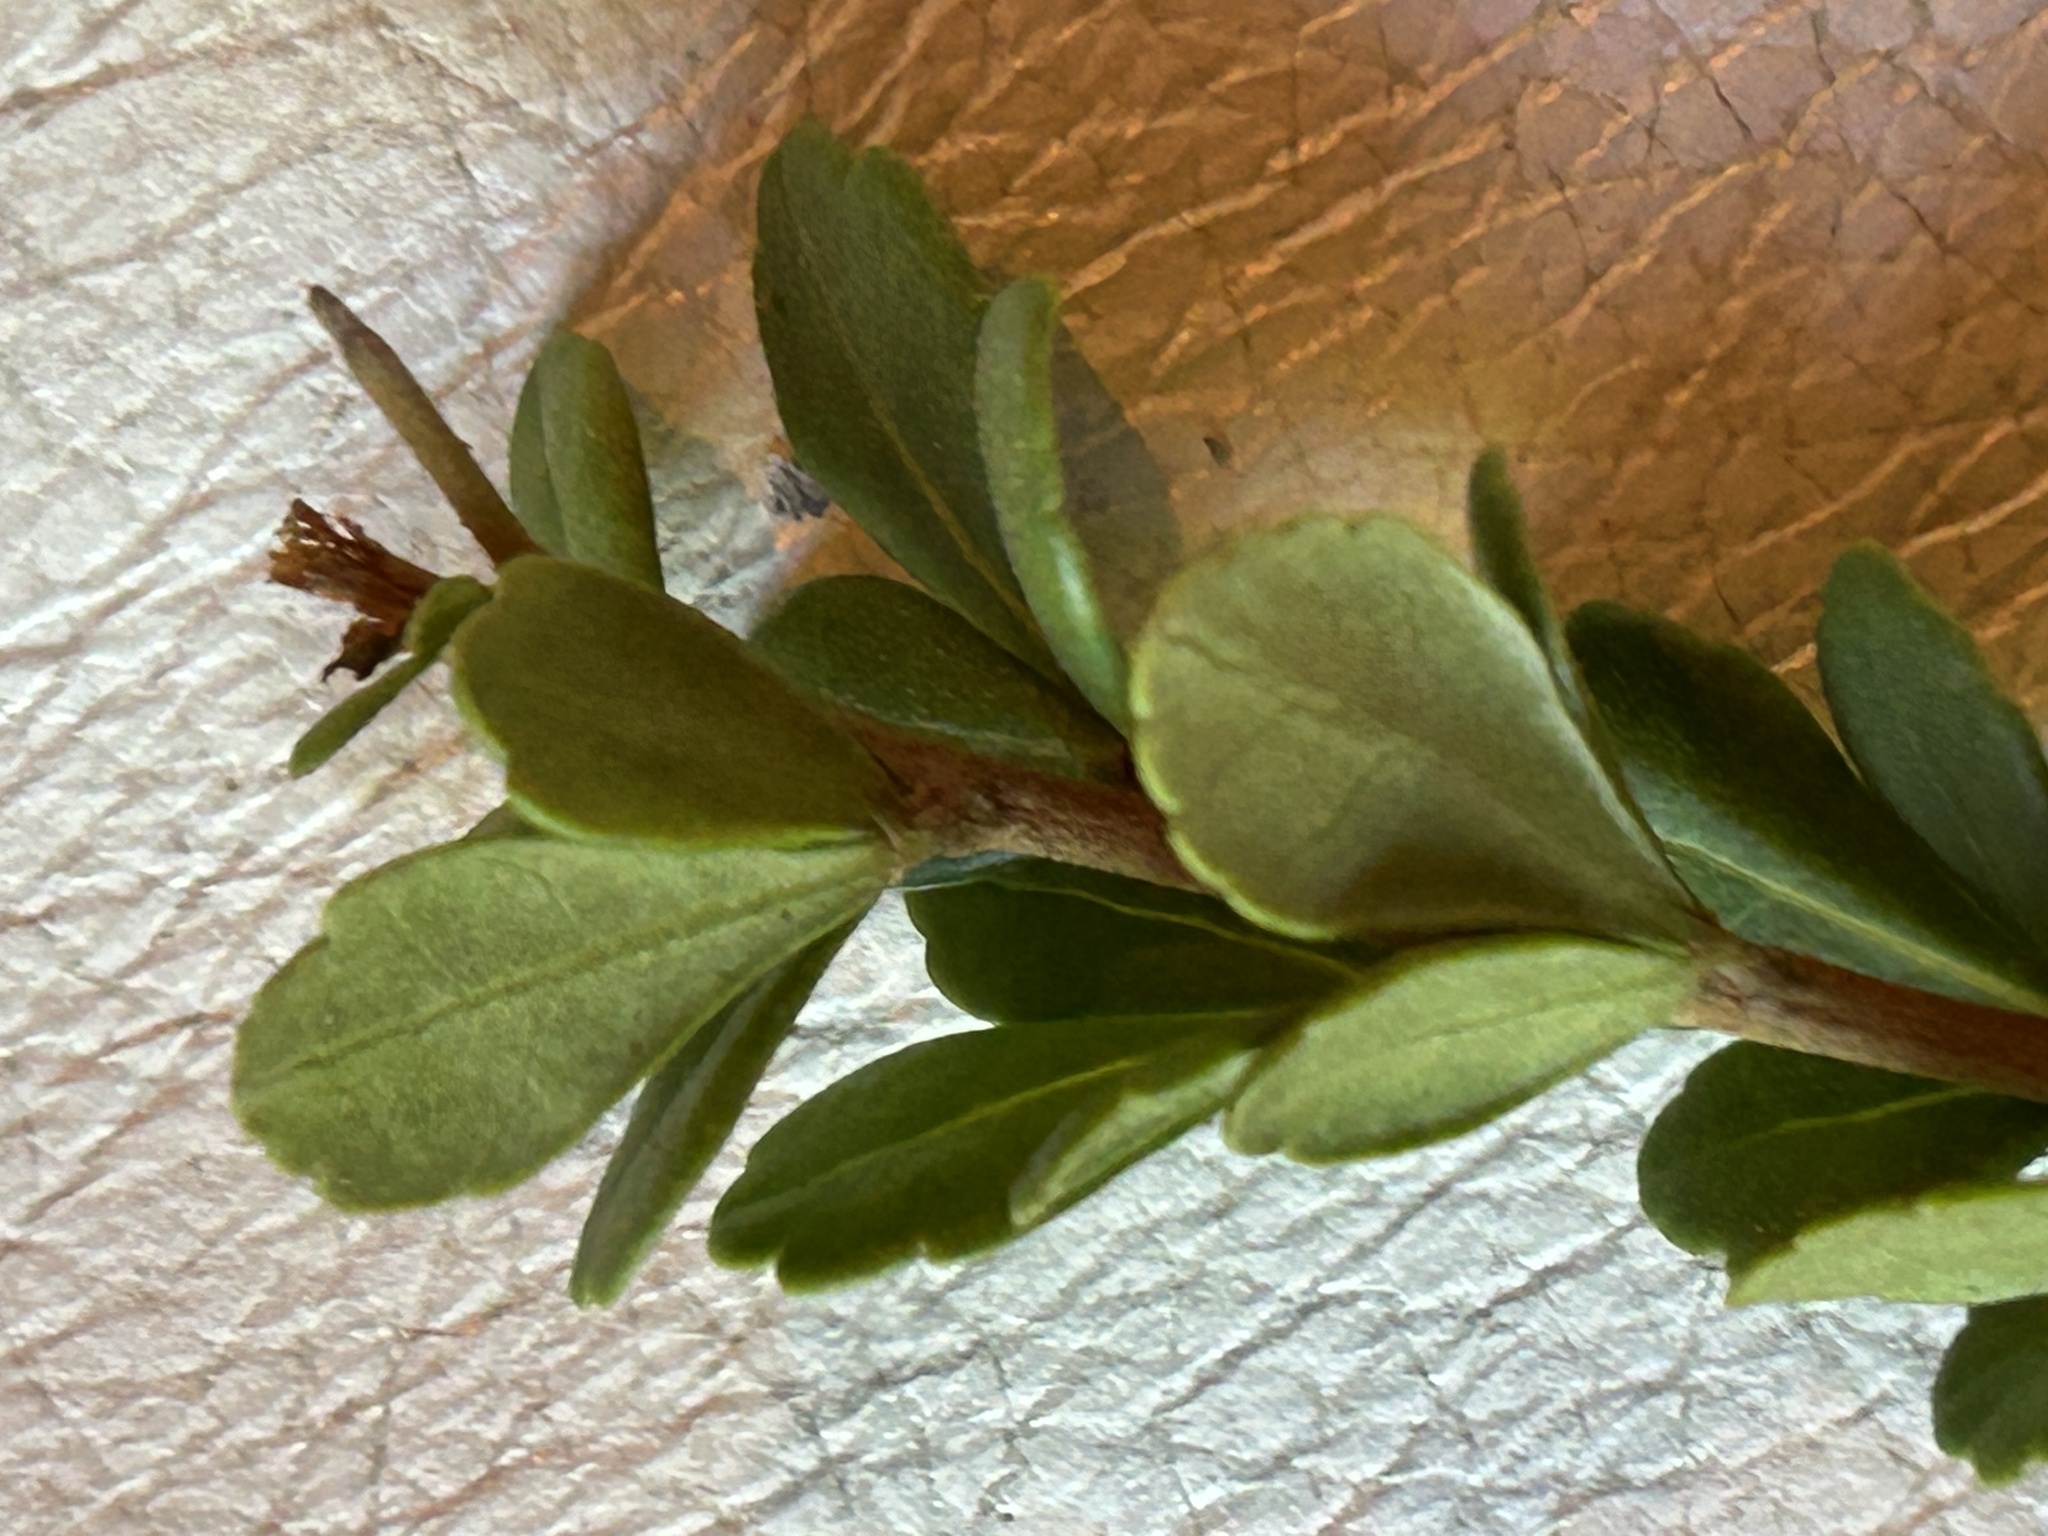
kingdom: Plantae
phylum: Tracheophyta
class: Magnoliopsida
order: Sapindales
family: Anacardiaceae
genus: Searsia
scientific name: Searsia crenata
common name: Crowberry
